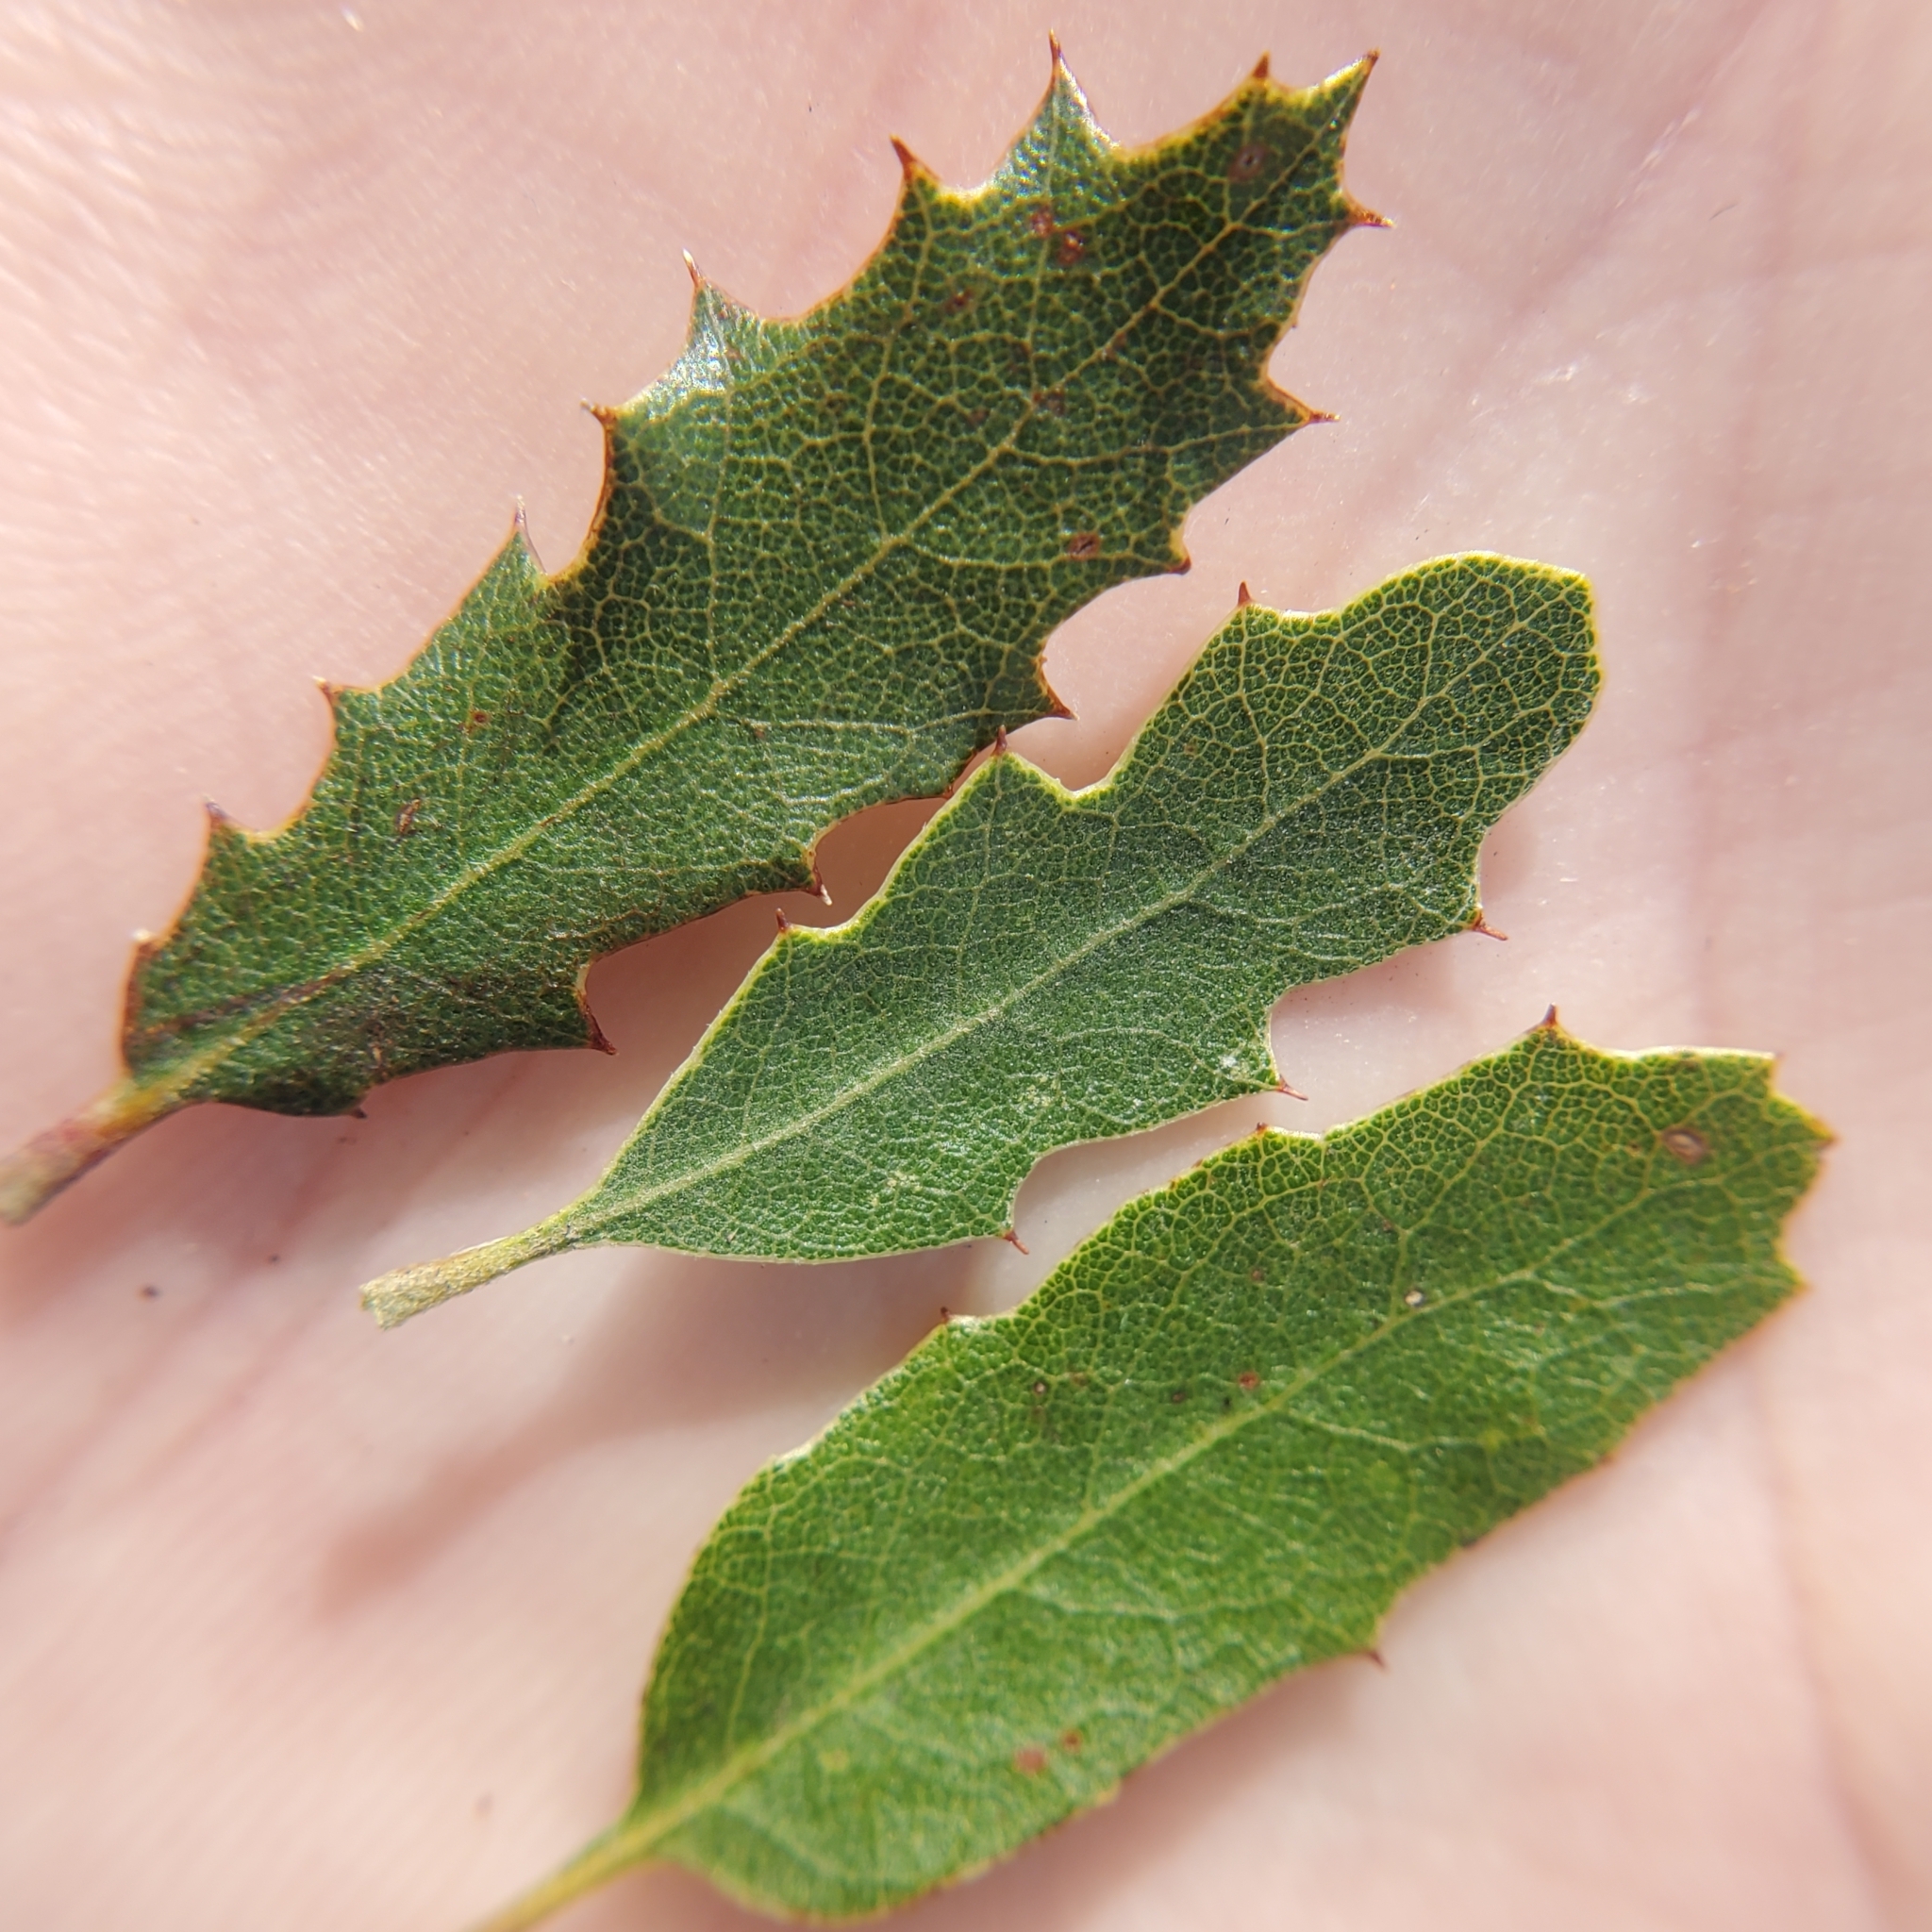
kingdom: Plantae
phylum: Tracheophyta
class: Magnoliopsida
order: Fagales
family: Fagaceae
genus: Quercus
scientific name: Quercus berberidifolia
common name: California scrub oak
